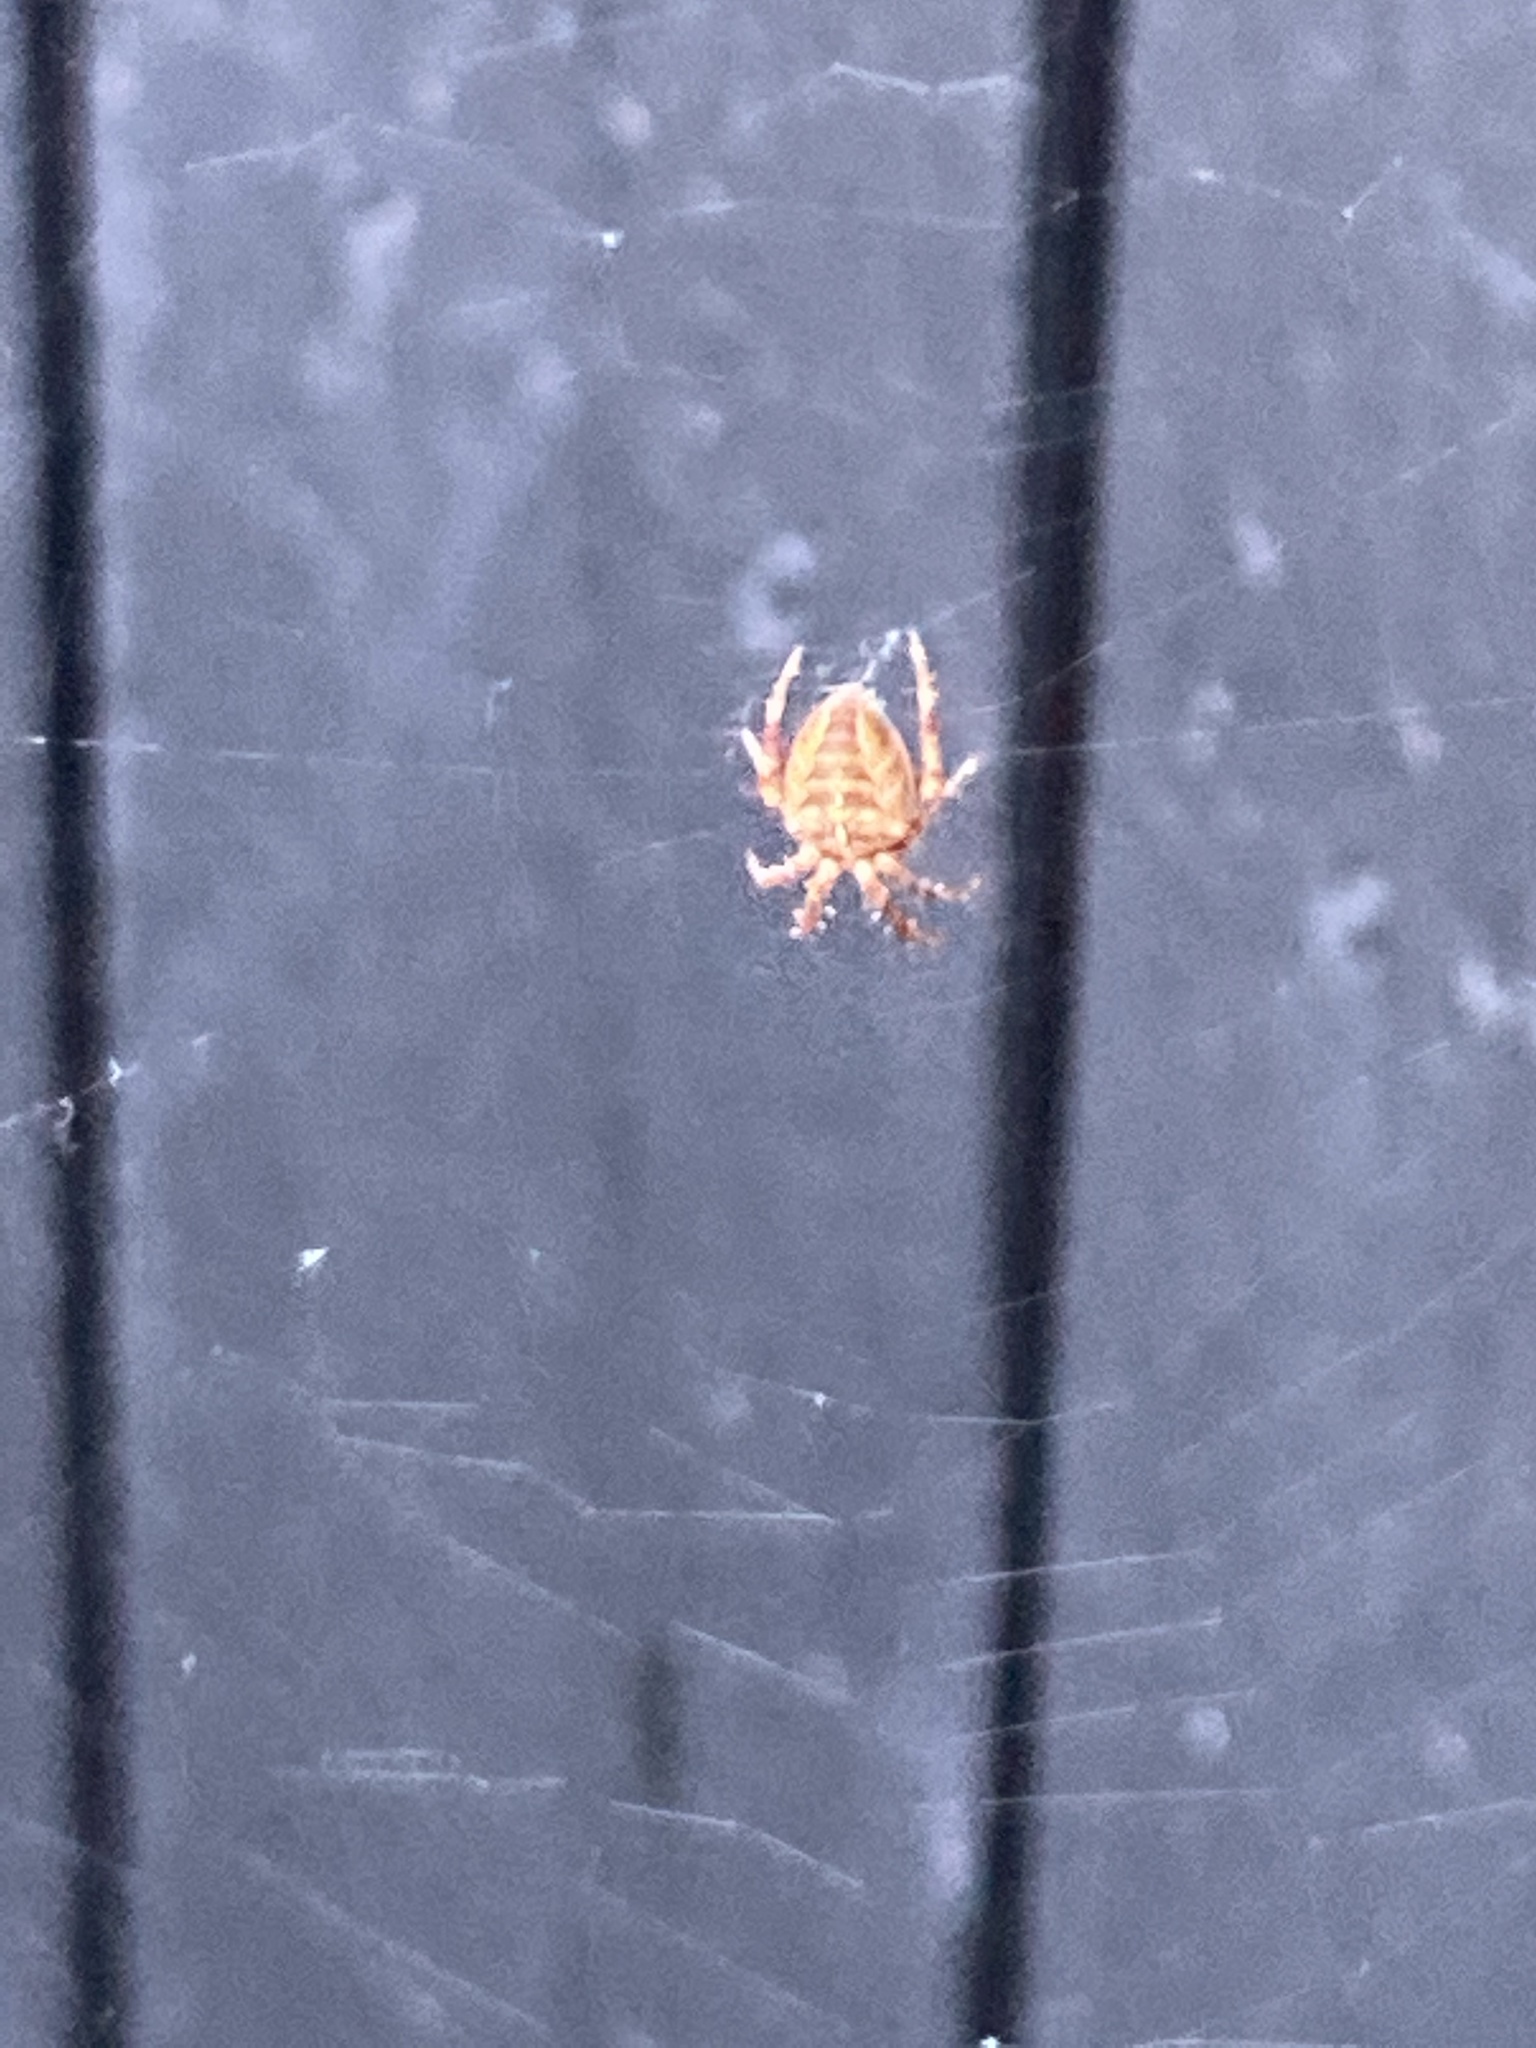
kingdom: Animalia
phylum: Arthropoda
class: Arachnida
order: Araneae
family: Araneidae
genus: Araneus
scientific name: Araneus diadematus
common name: Cross orbweaver
